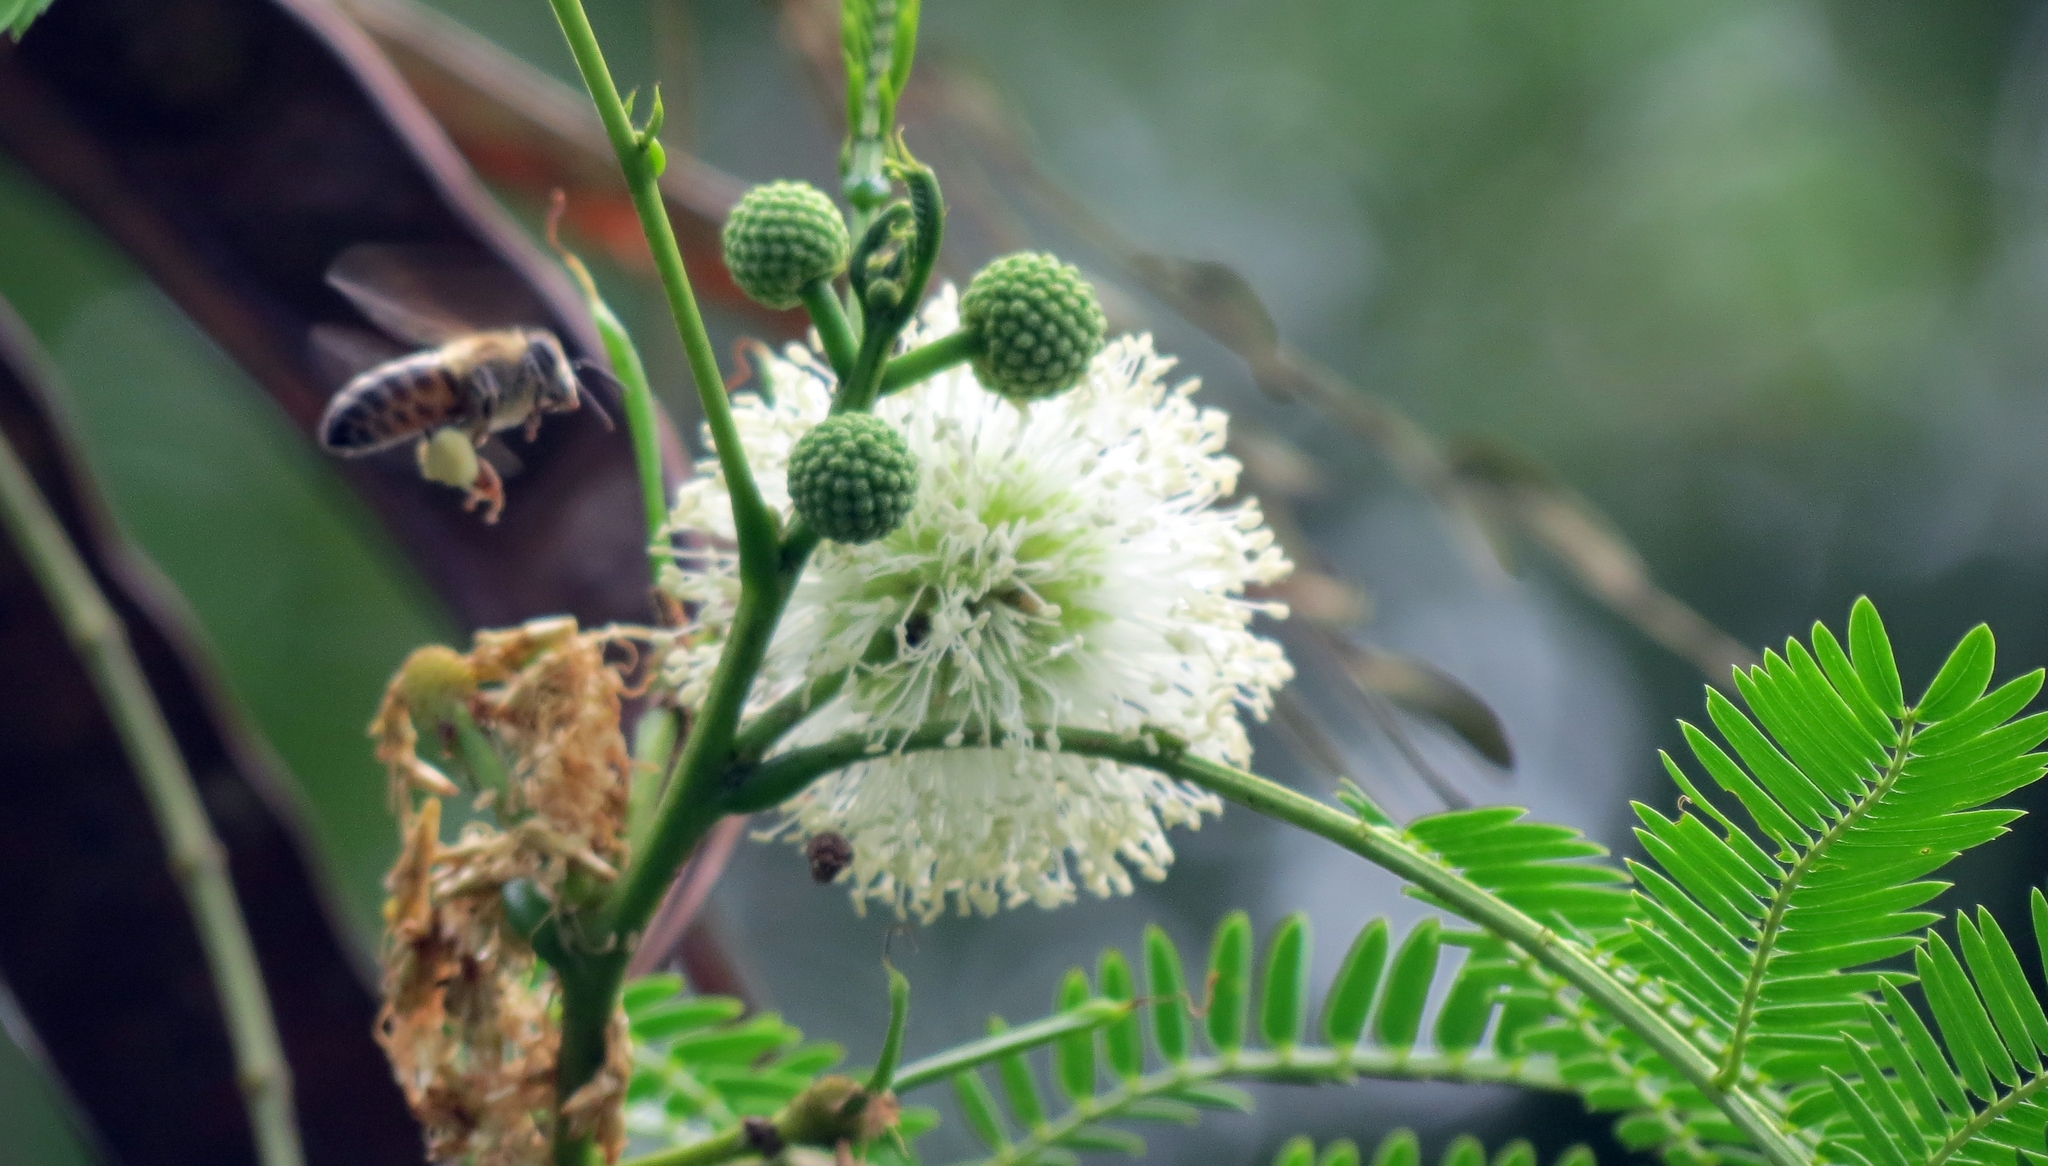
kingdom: Animalia
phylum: Arthropoda
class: Insecta
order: Hymenoptera
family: Apidae
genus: Apis
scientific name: Apis mellifera
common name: Honey bee
